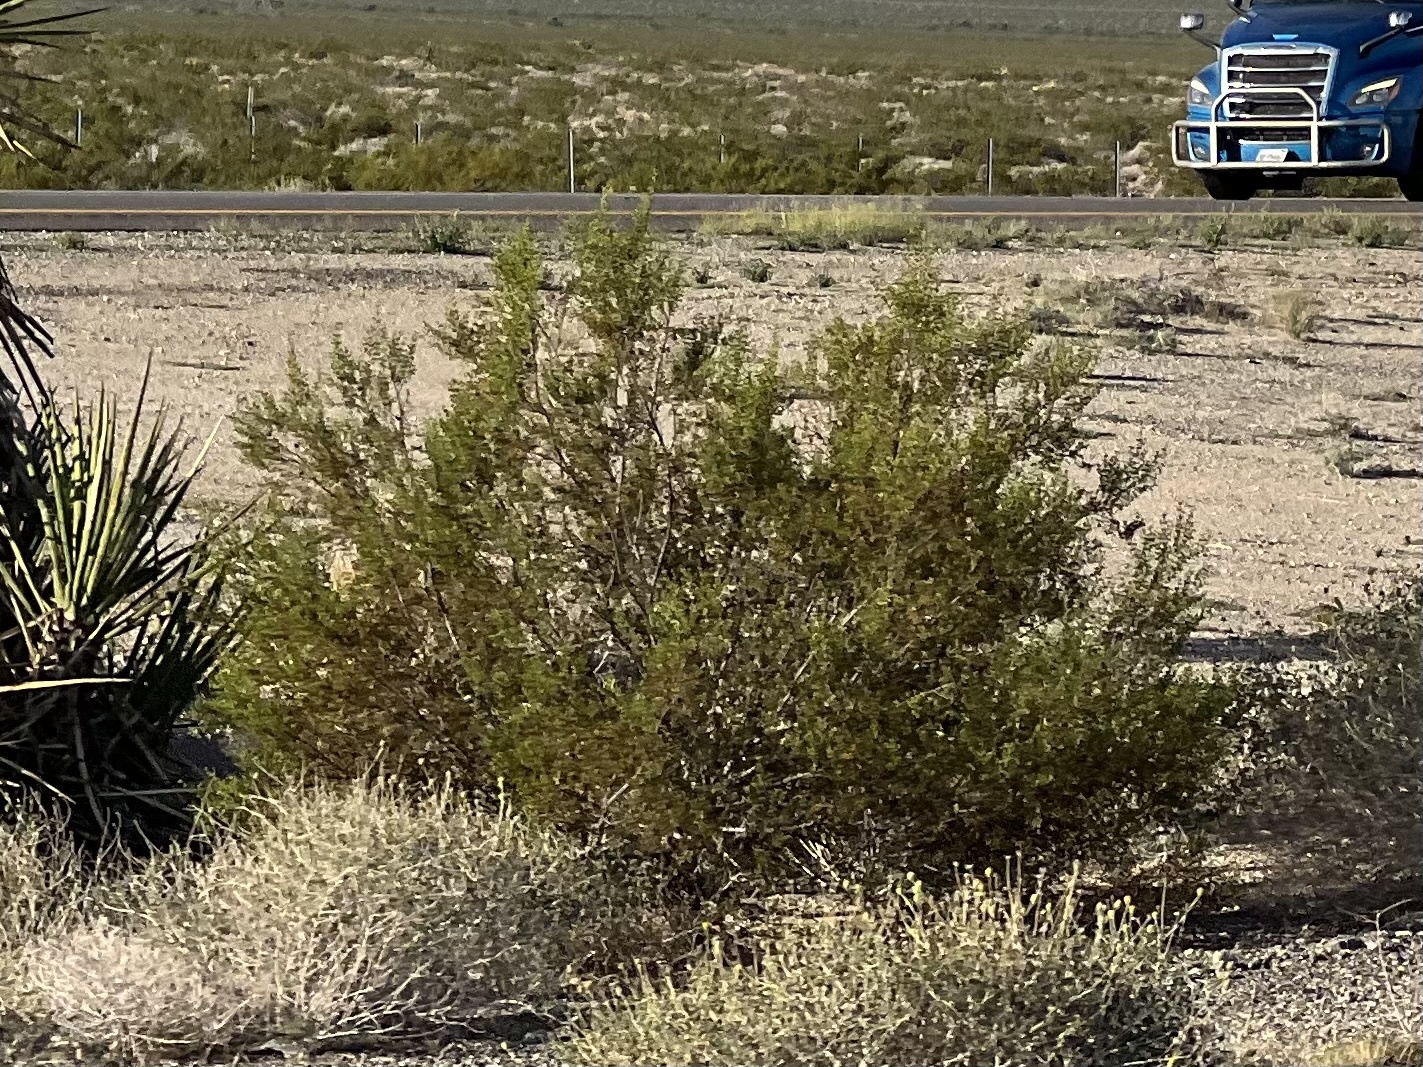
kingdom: Plantae
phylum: Tracheophyta
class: Magnoliopsida
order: Zygophyllales
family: Zygophyllaceae
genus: Larrea
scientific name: Larrea tridentata
